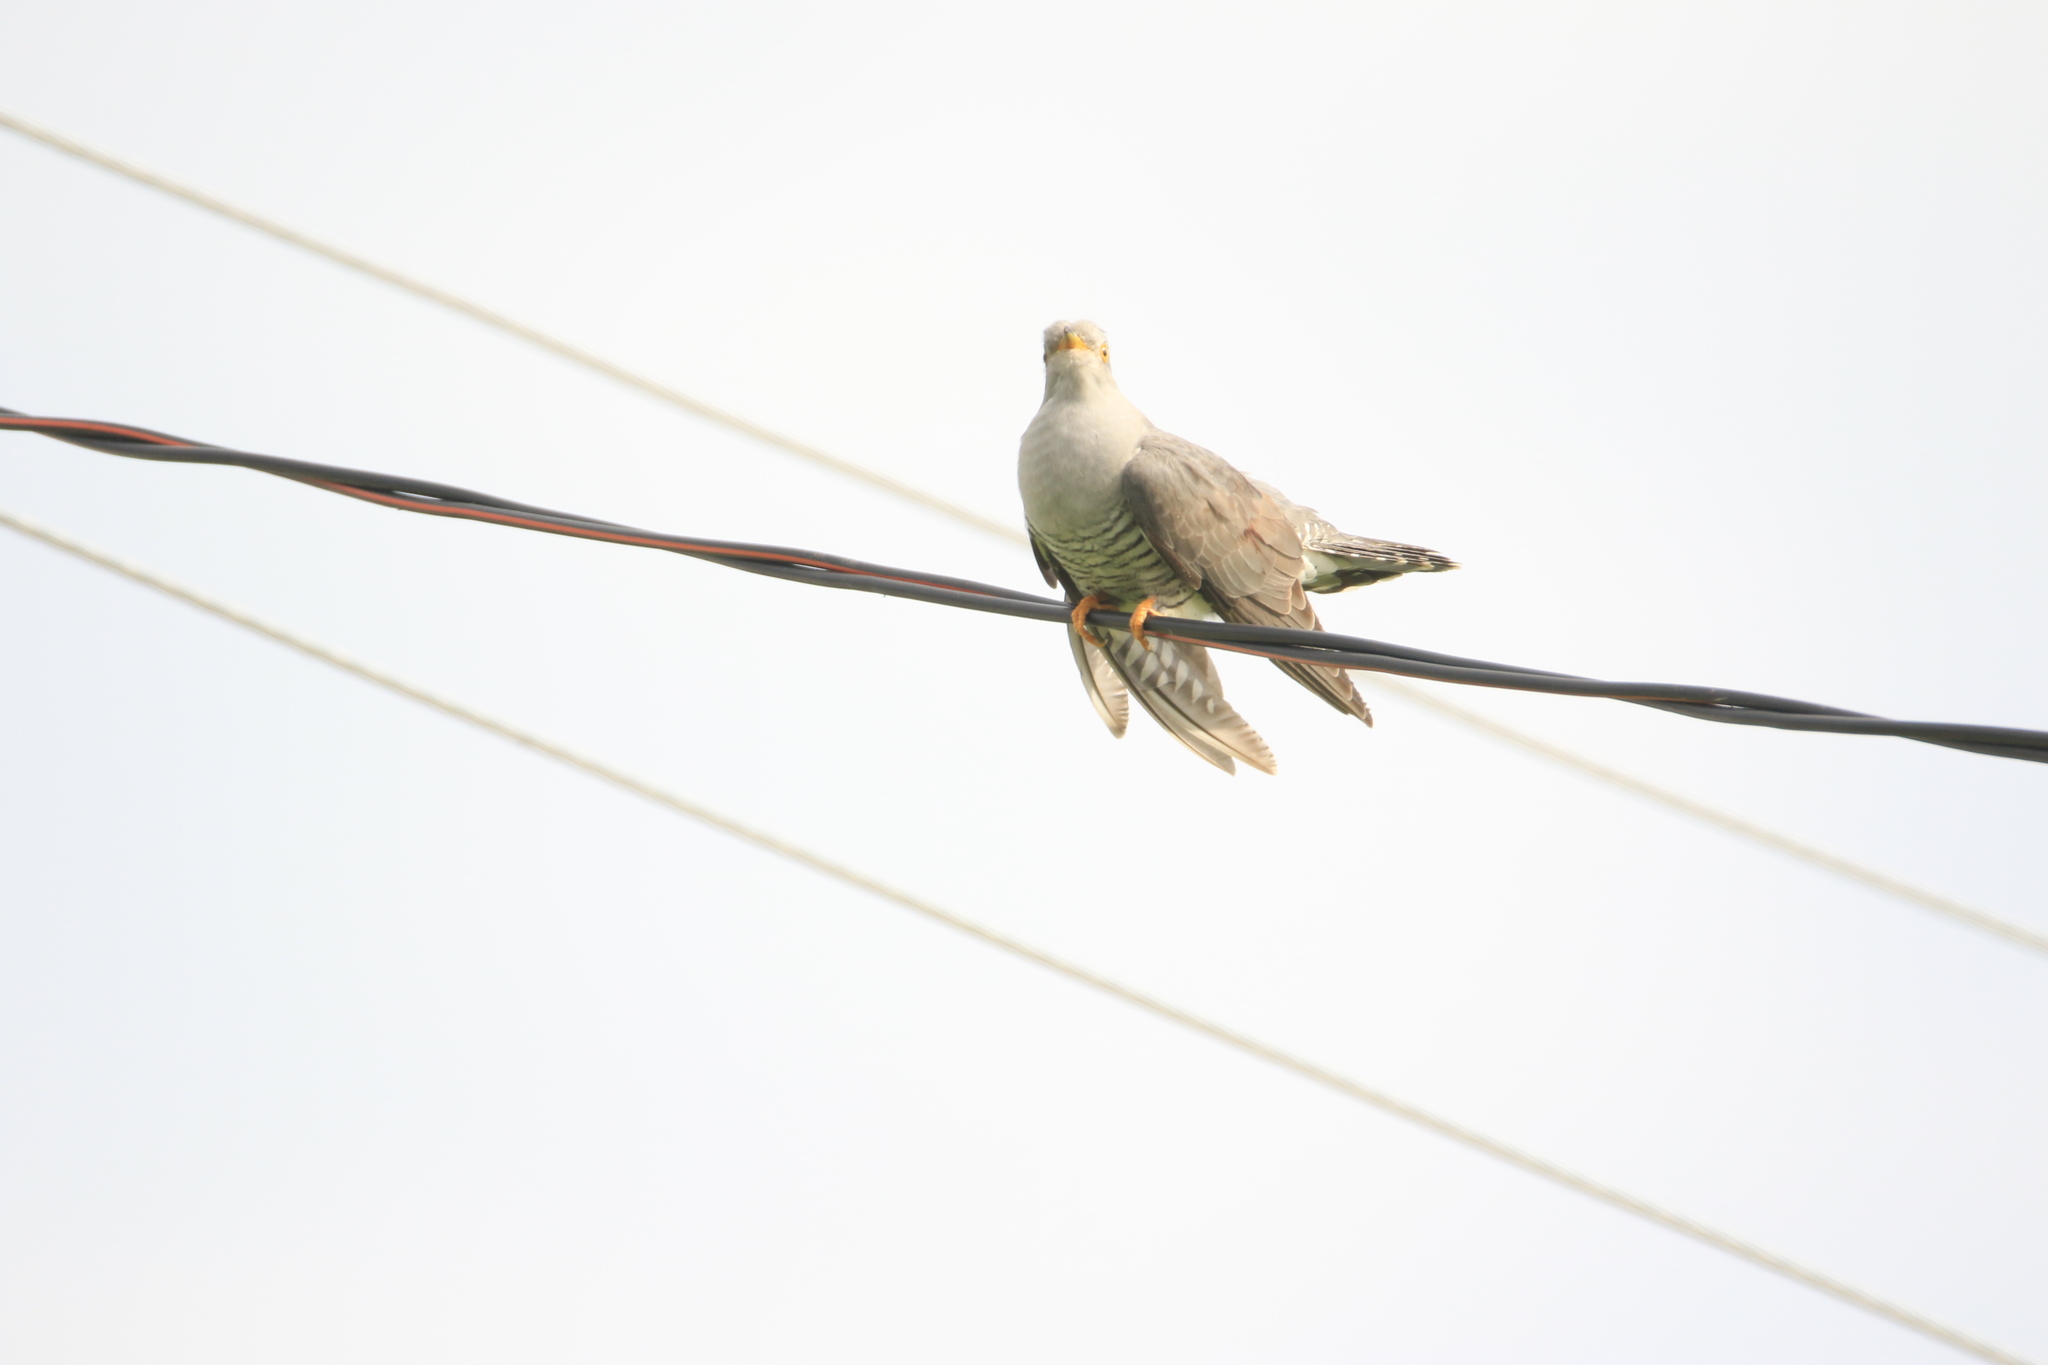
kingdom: Animalia
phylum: Chordata
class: Aves
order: Cuculiformes
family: Cuculidae
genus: Cuculus
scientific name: Cuculus canorus
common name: Common cuckoo
